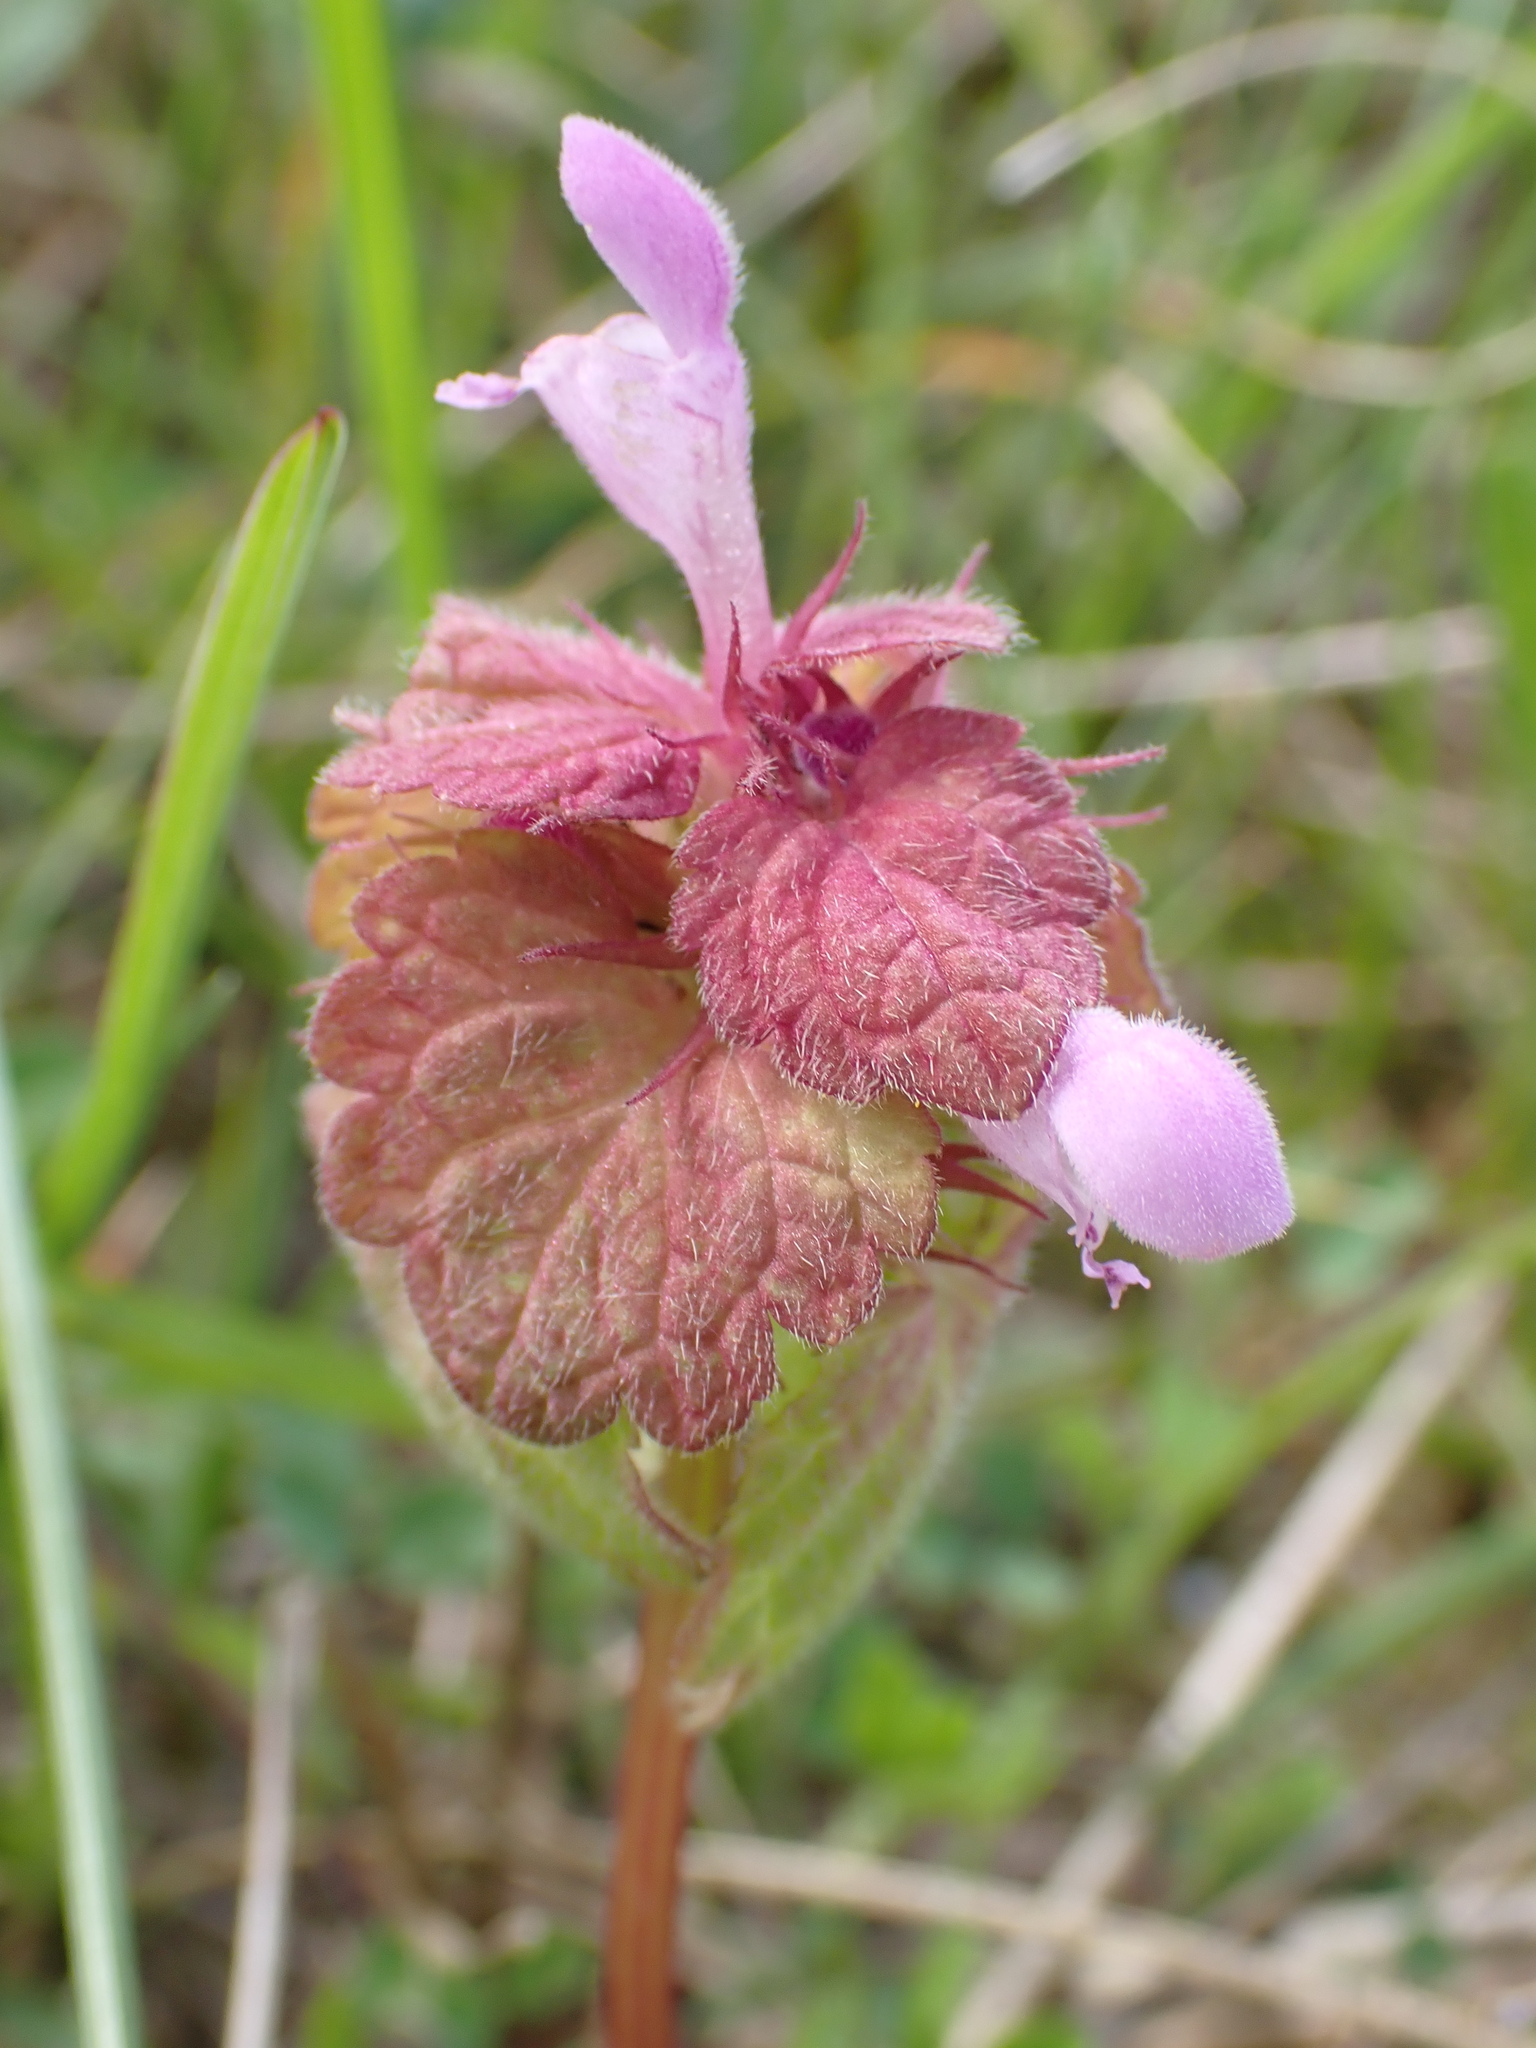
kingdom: Plantae
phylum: Tracheophyta
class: Magnoliopsida
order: Lamiales
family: Lamiaceae
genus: Lamium
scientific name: Lamium purpureum
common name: Red dead-nettle
